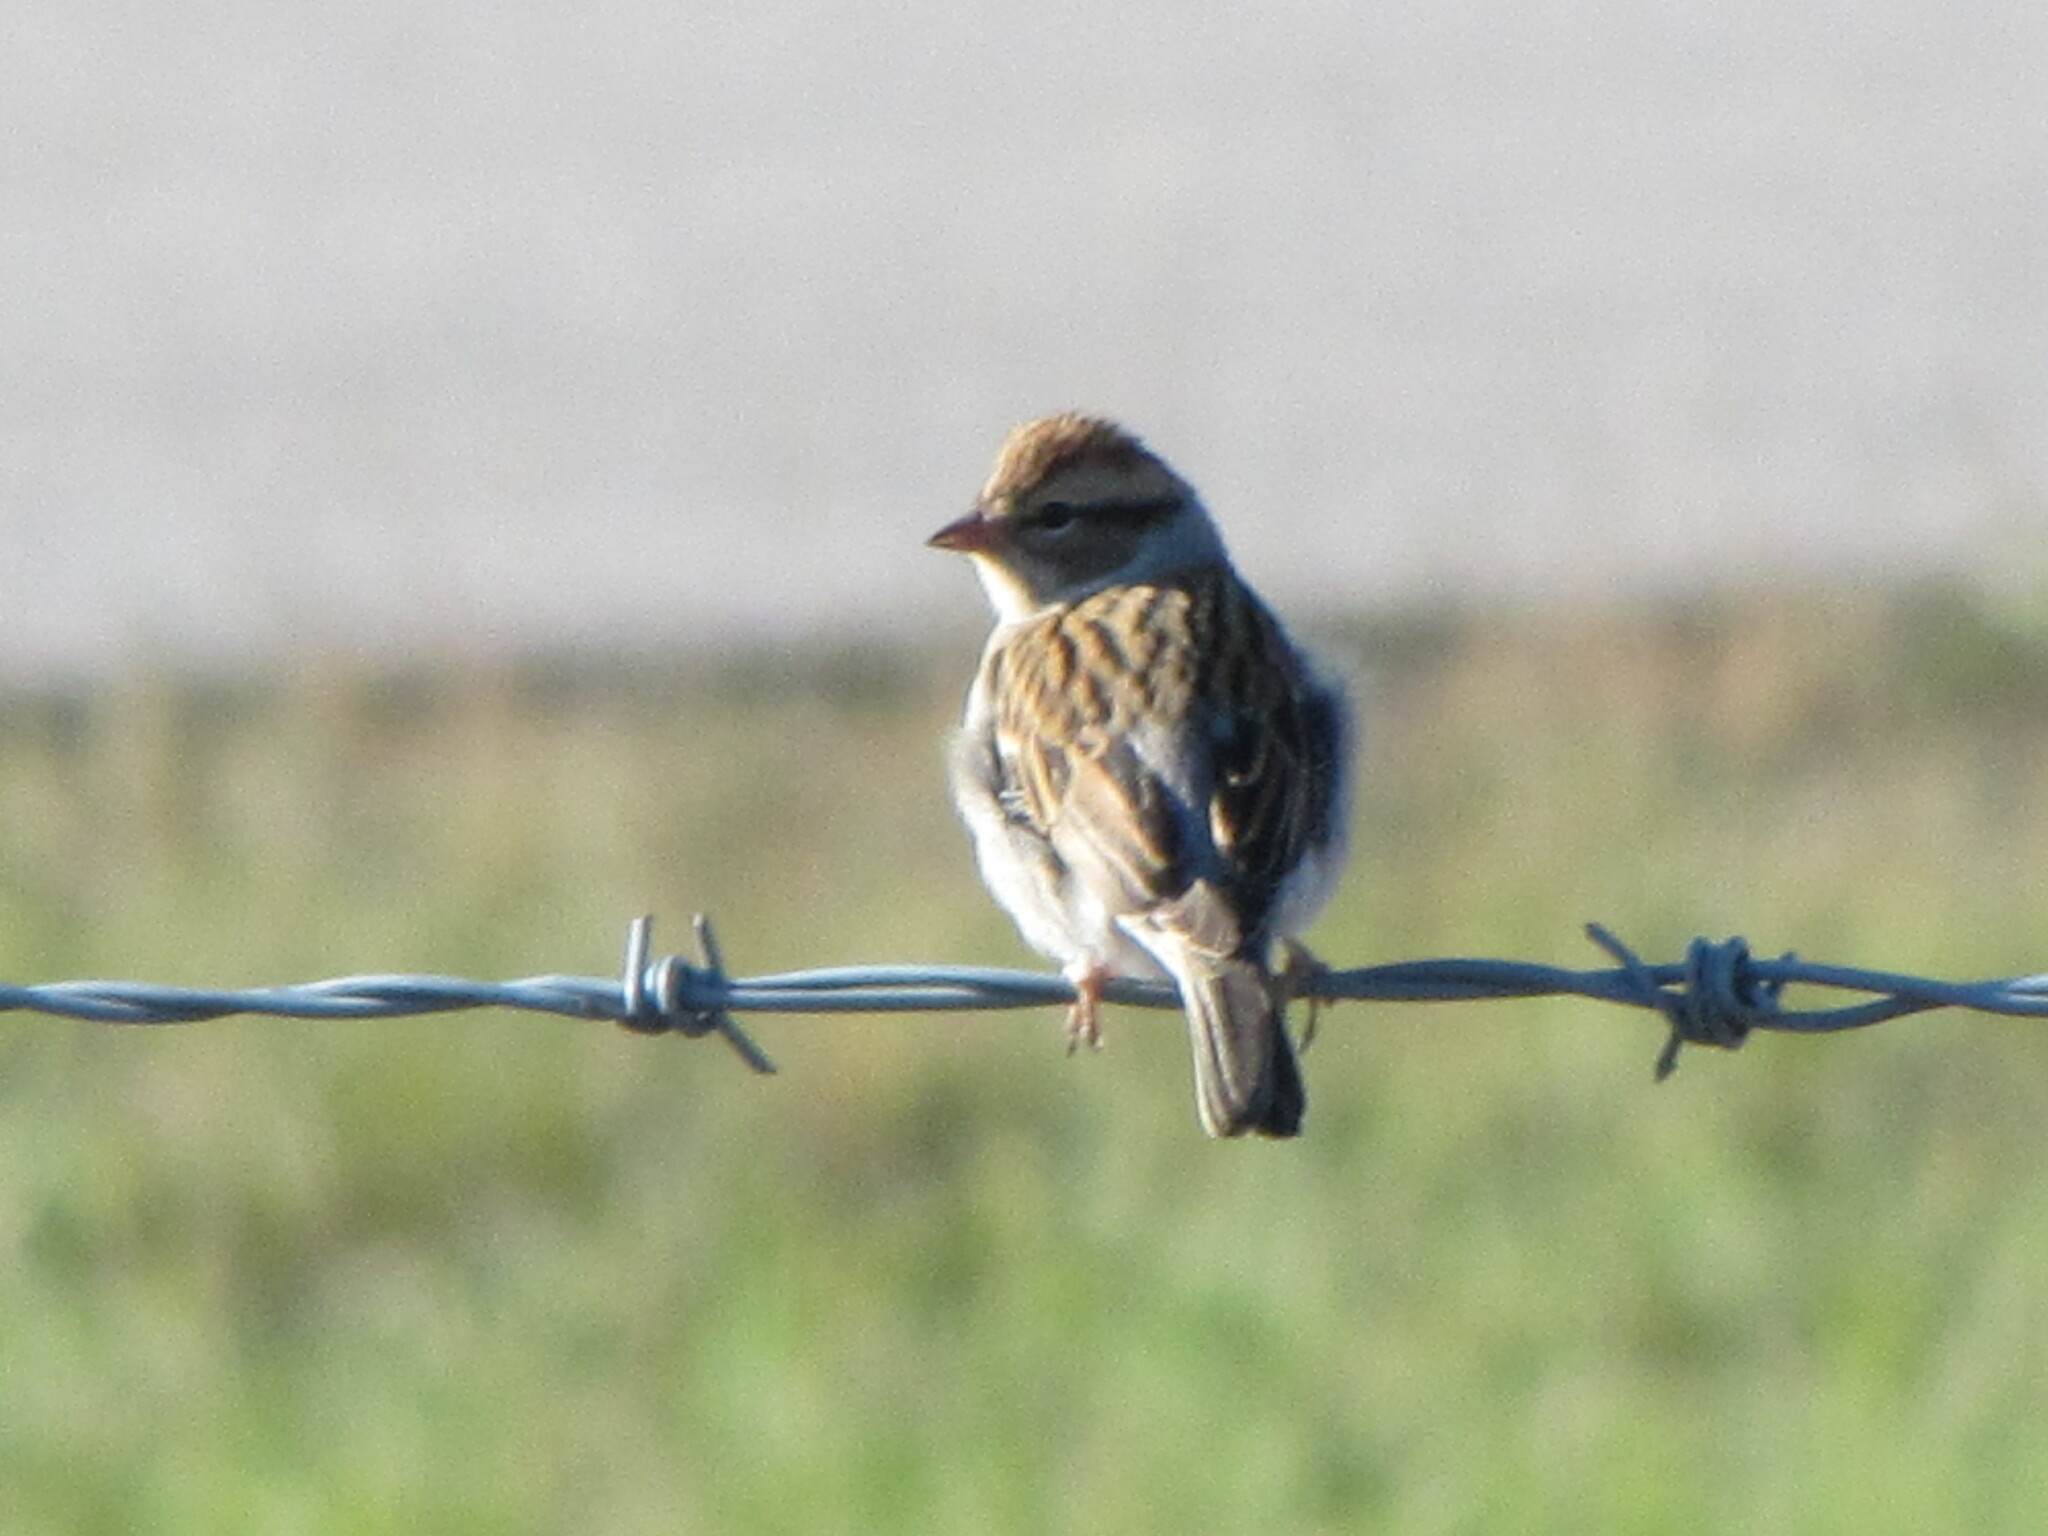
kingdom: Animalia
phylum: Chordata
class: Aves
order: Passeriformes
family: Passerellidae
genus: Spizella
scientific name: Spizella passerina
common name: Chipping sparrow
